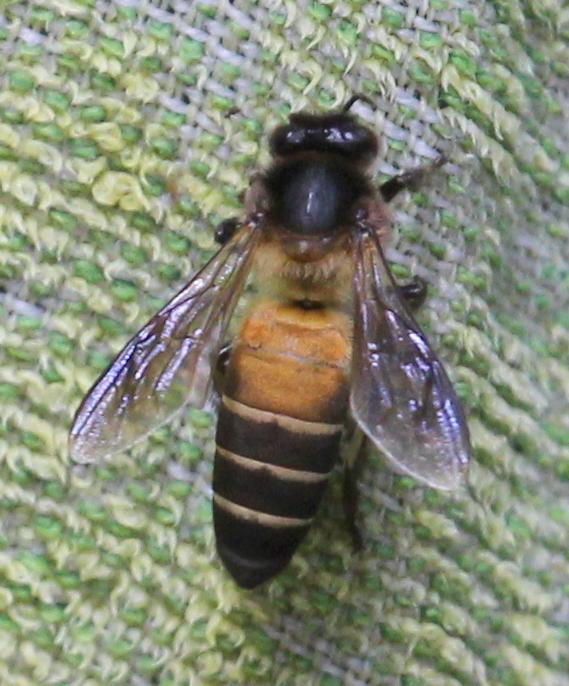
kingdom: Animalia
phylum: Arthropoda
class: Insecta
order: Hymenoptera
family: Apidae
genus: Apis
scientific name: Apis dorsata
